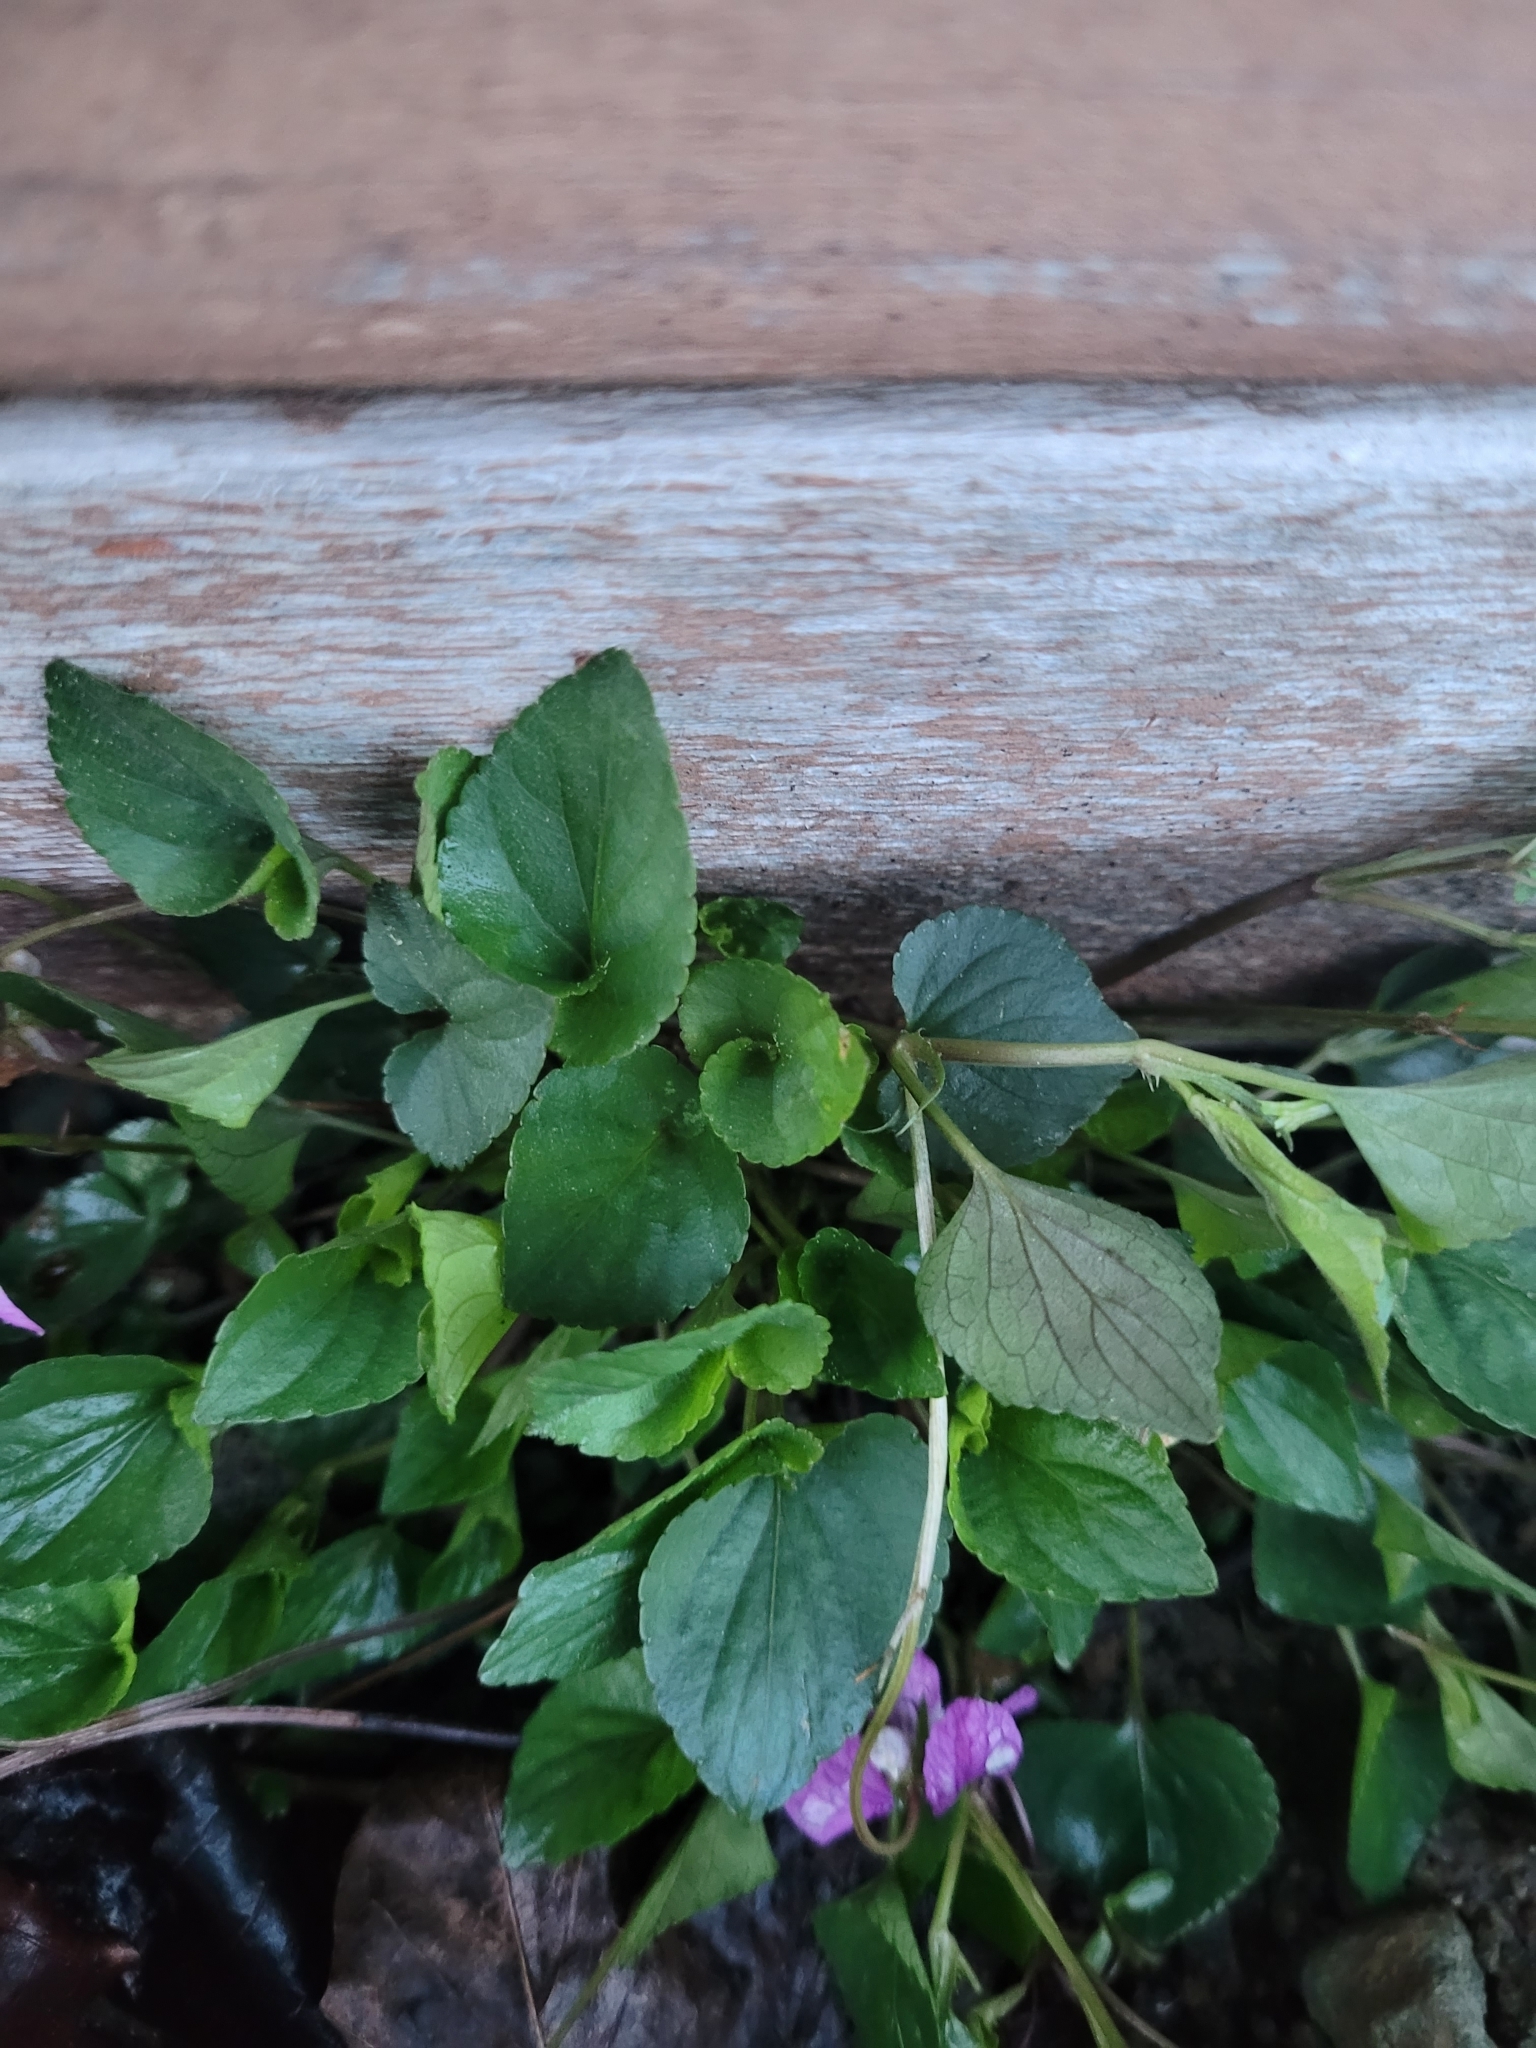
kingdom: Plantae
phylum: Tracheophyta
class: Magnoliopsida
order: Malpighiales
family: Violaceae
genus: Viola
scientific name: Viola riviniana
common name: Common dog-violet
